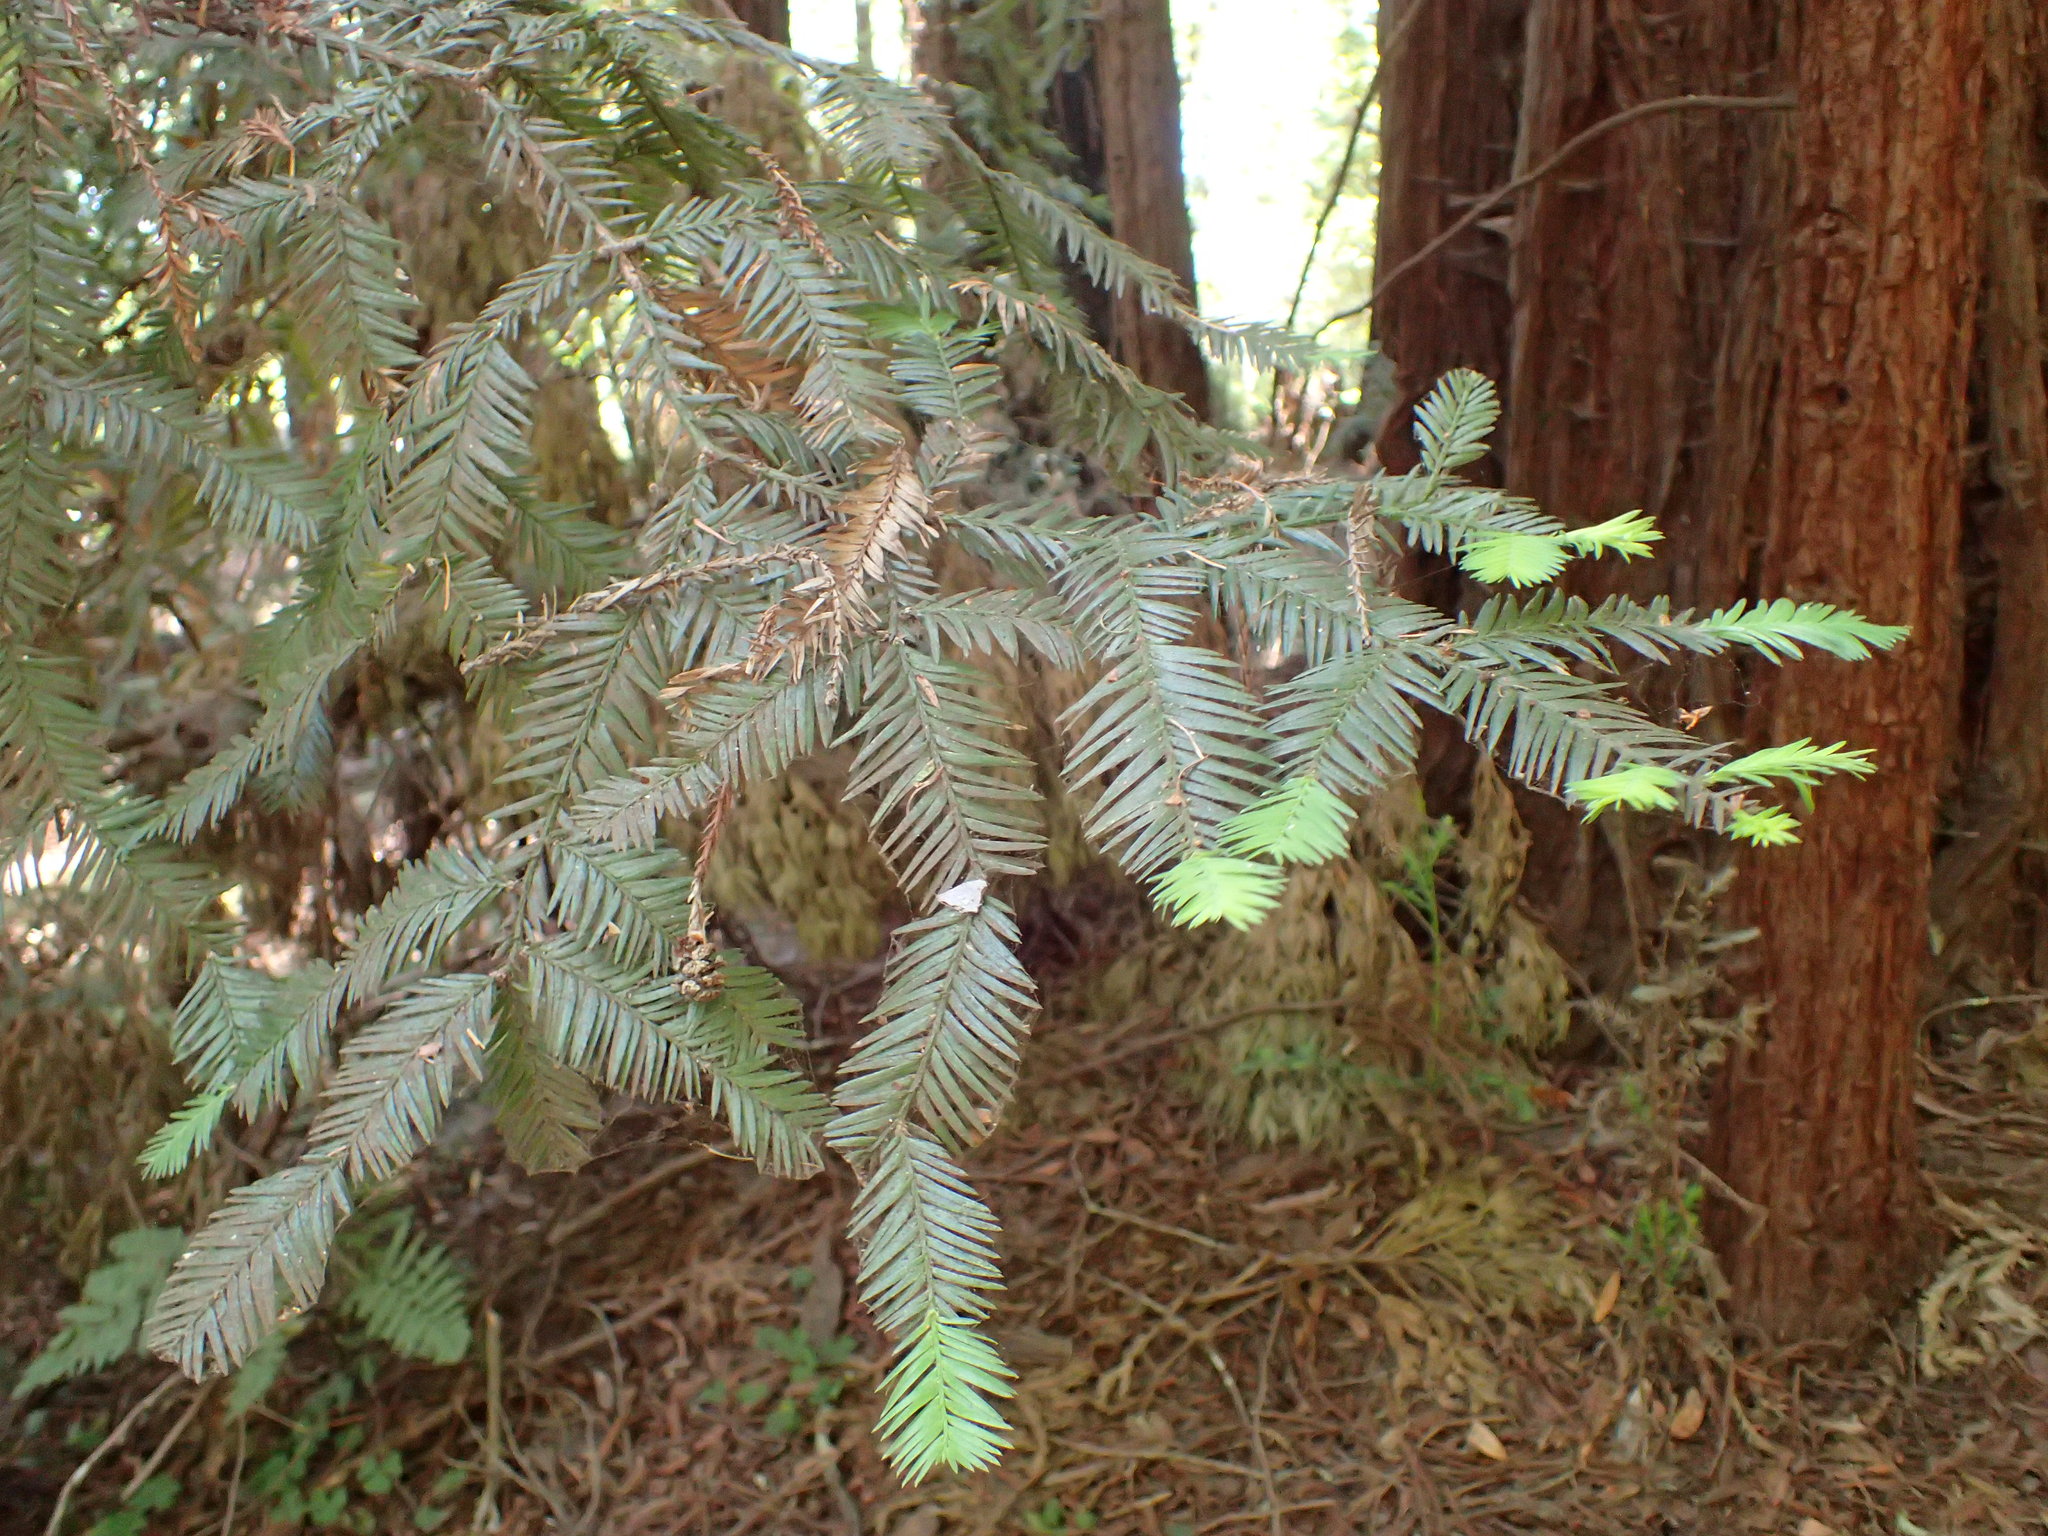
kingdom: Plantae
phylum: Tracheophyta
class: Pinopsida
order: Pinales
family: Cupressaceae
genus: Sequoia
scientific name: Sequoia sempervirens
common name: Coast redwood
